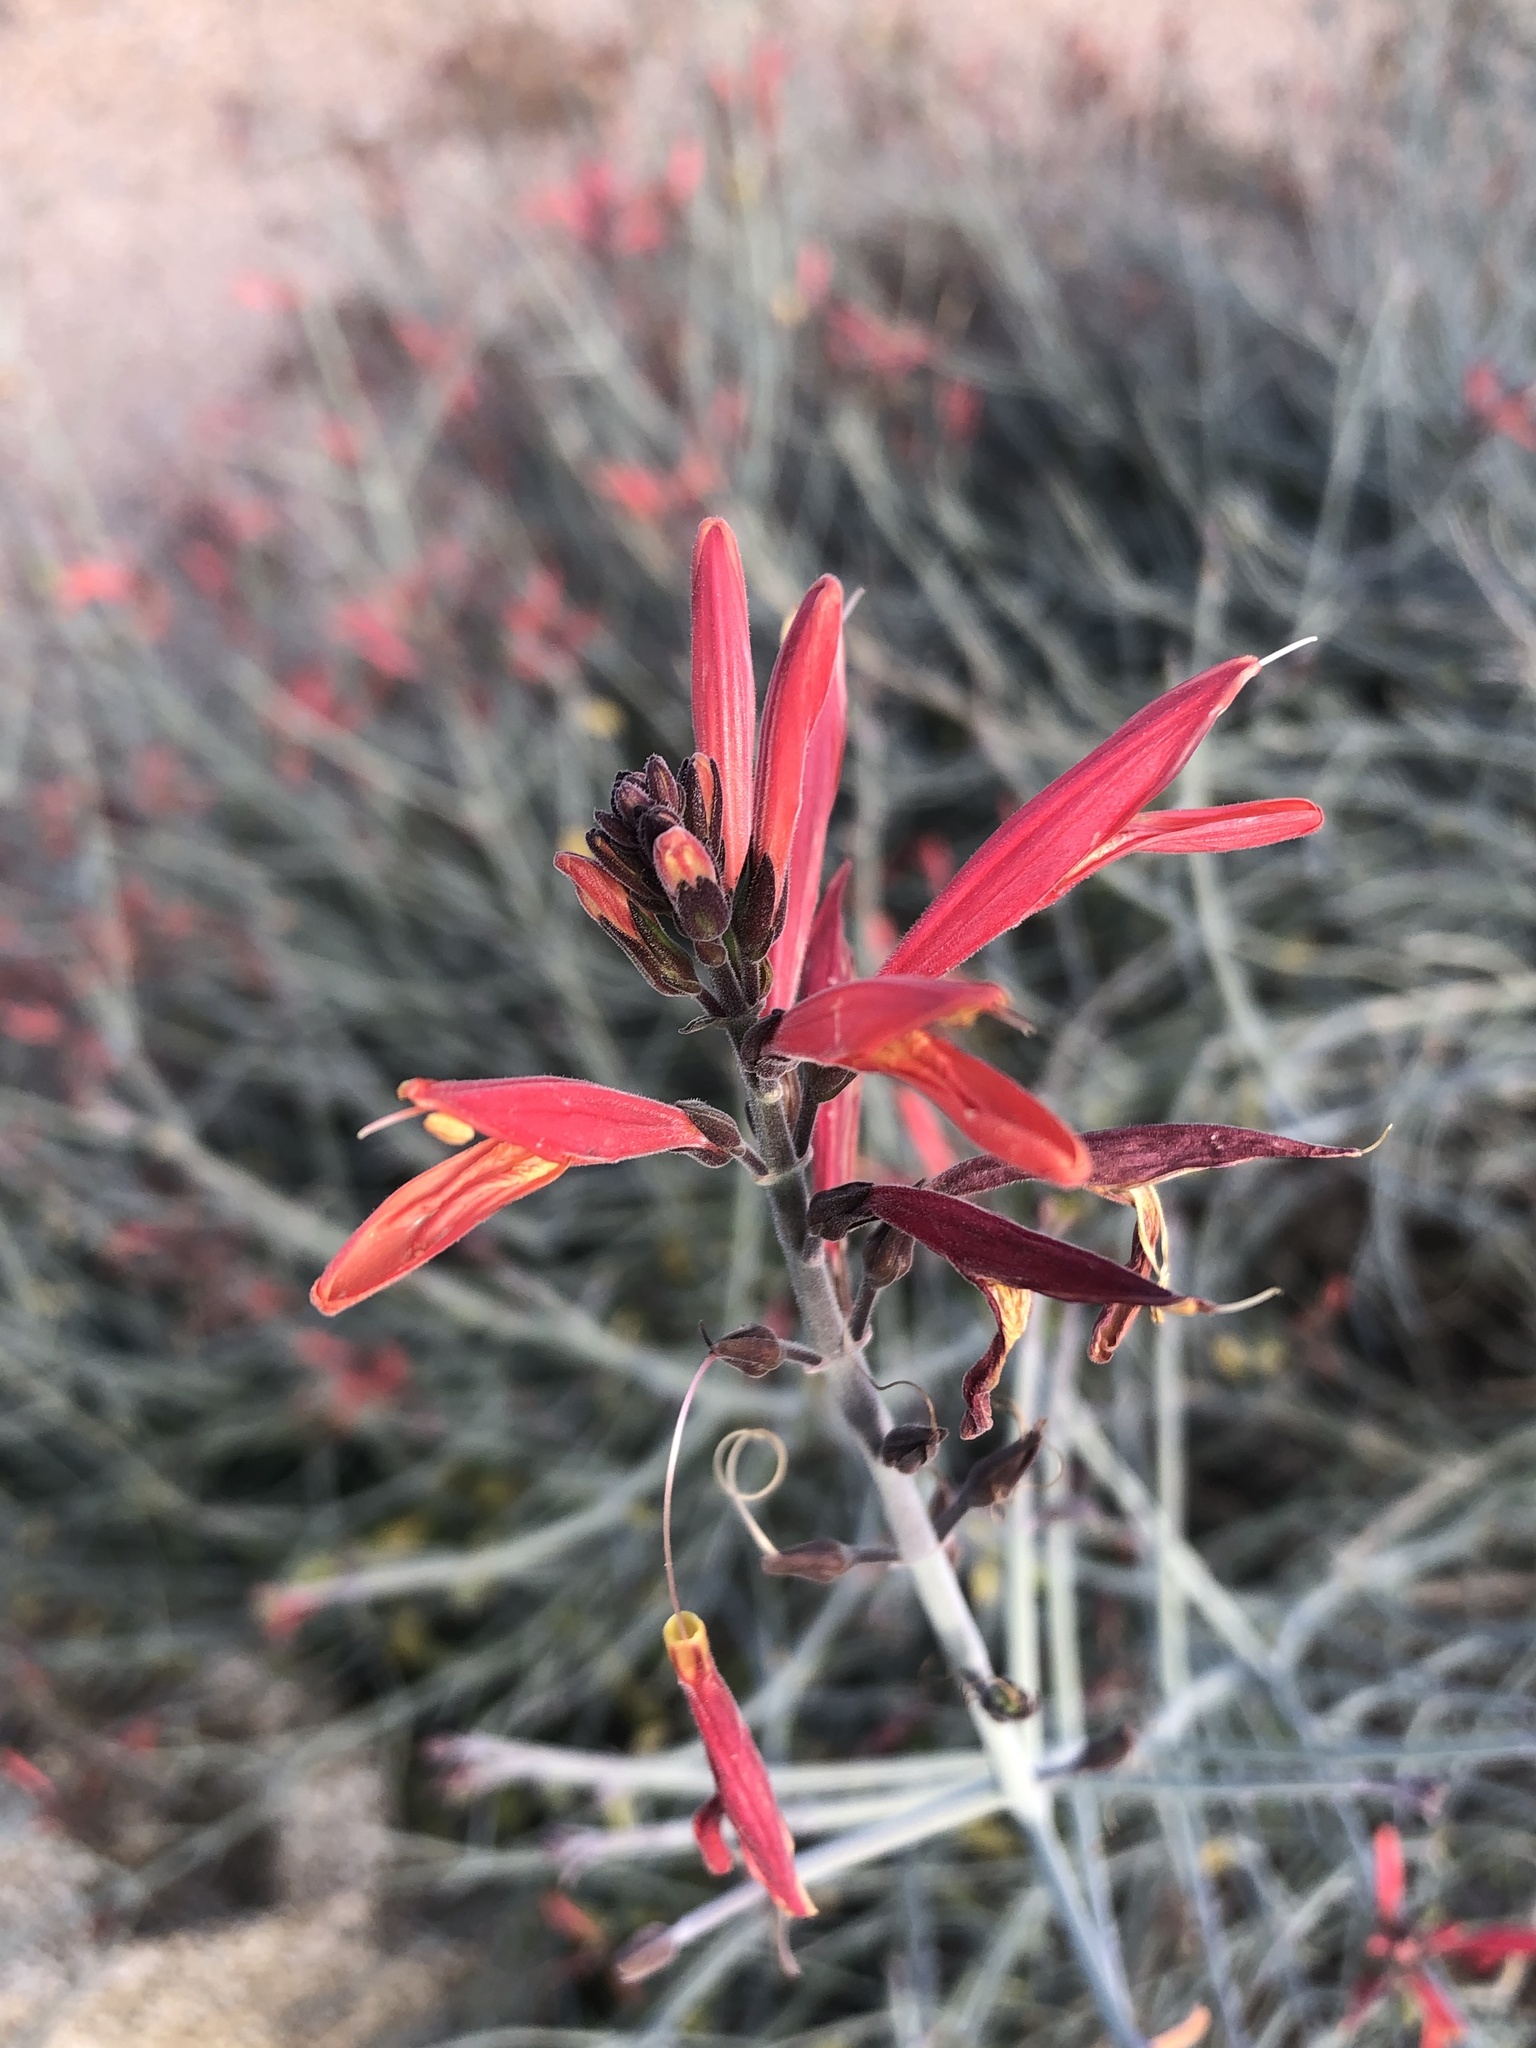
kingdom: Plantae
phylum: Tracheophyta
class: Magnoliopsida
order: Lamiales
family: Acanthaceae
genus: Justicia
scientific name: Justicia californica
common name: Chuparosa-honeysuckle
